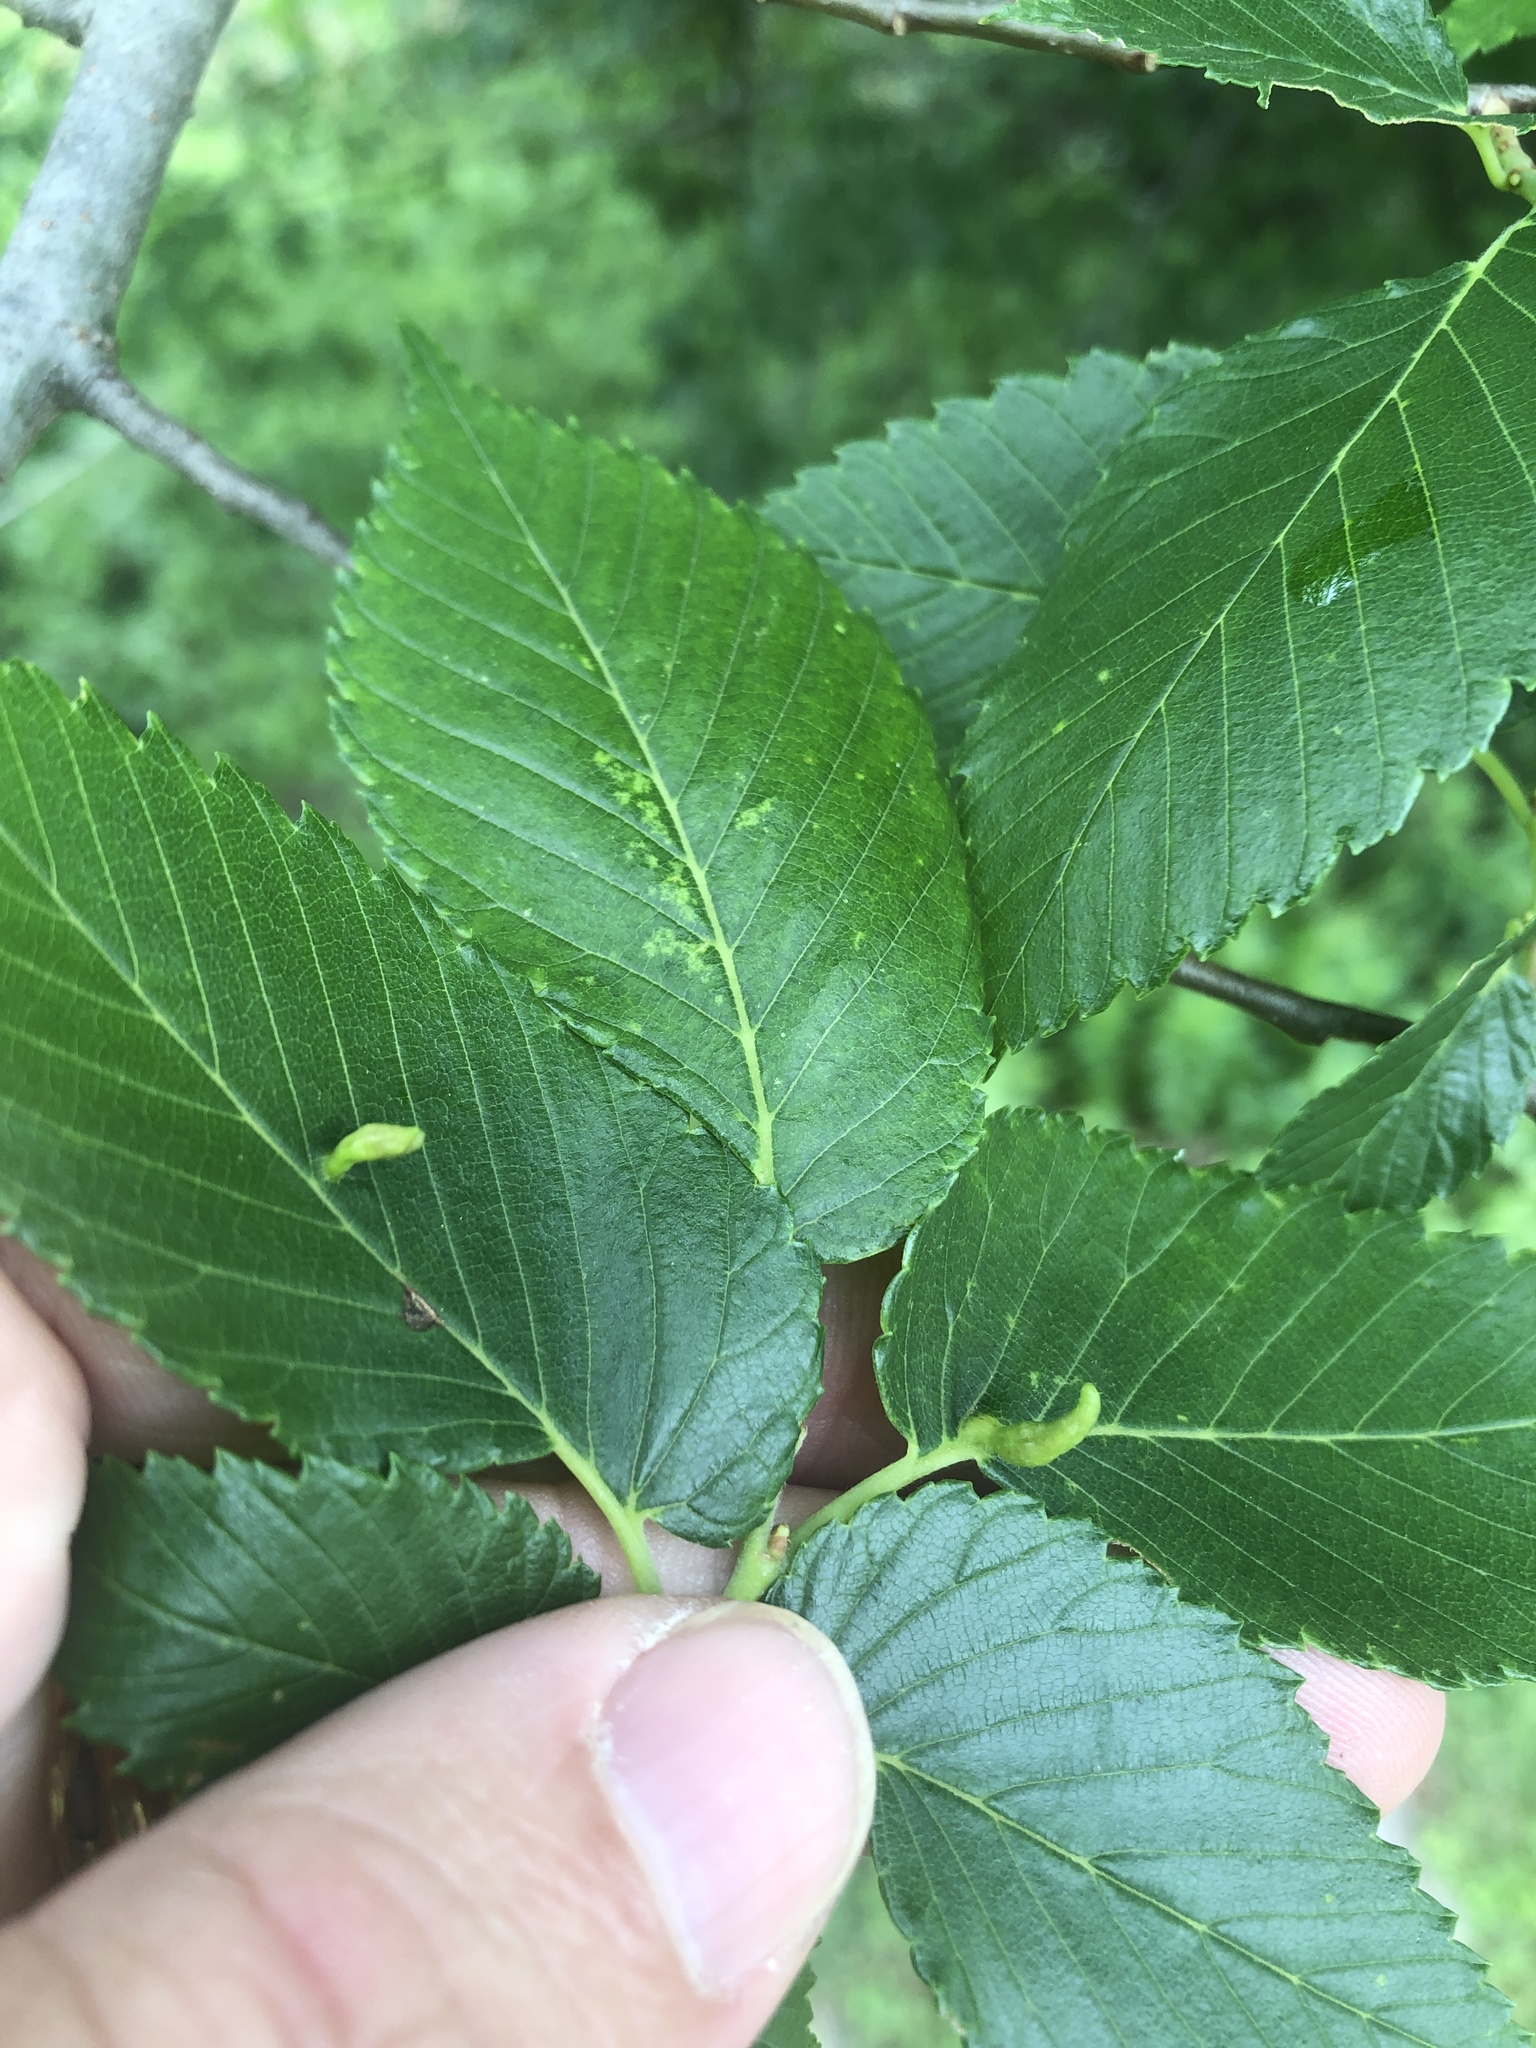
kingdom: Animalia
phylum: Arthropoda
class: Arachnida
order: Trombidiformes
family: Eriophyidae
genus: Aceria
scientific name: Aceria
